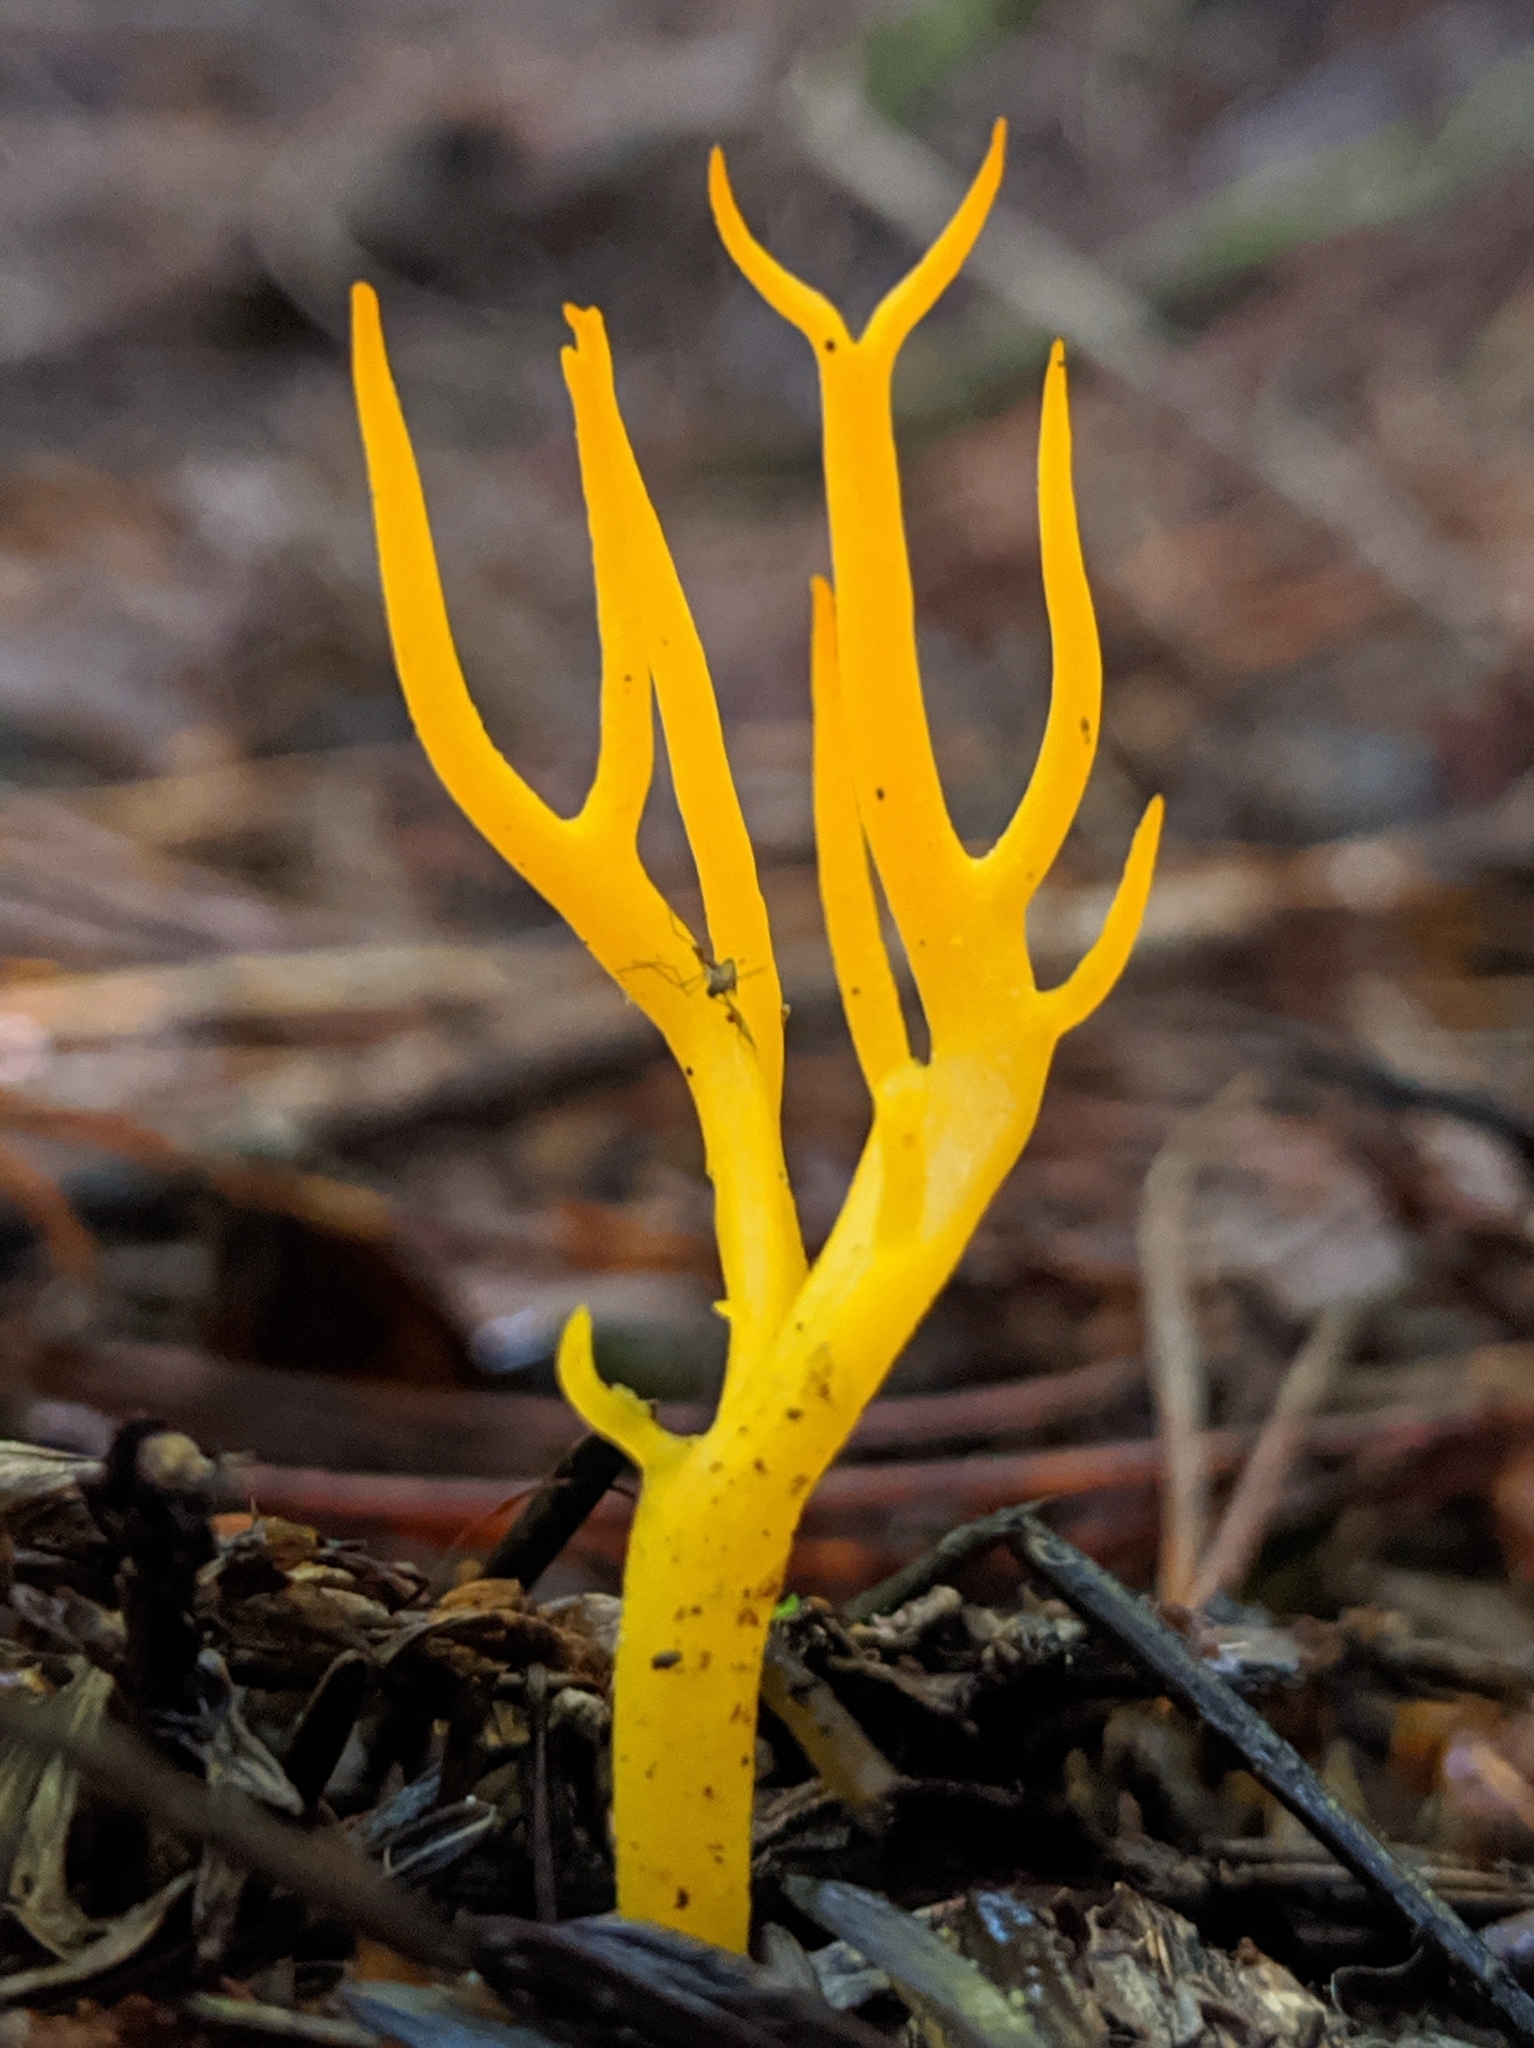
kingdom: Fungi
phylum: Basidiomycota
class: Dacrymycetes
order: Dacrymycetales
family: Dacrymycetaceae
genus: Calocera
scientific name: Calocera viscosa
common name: Yellow stagshorn
